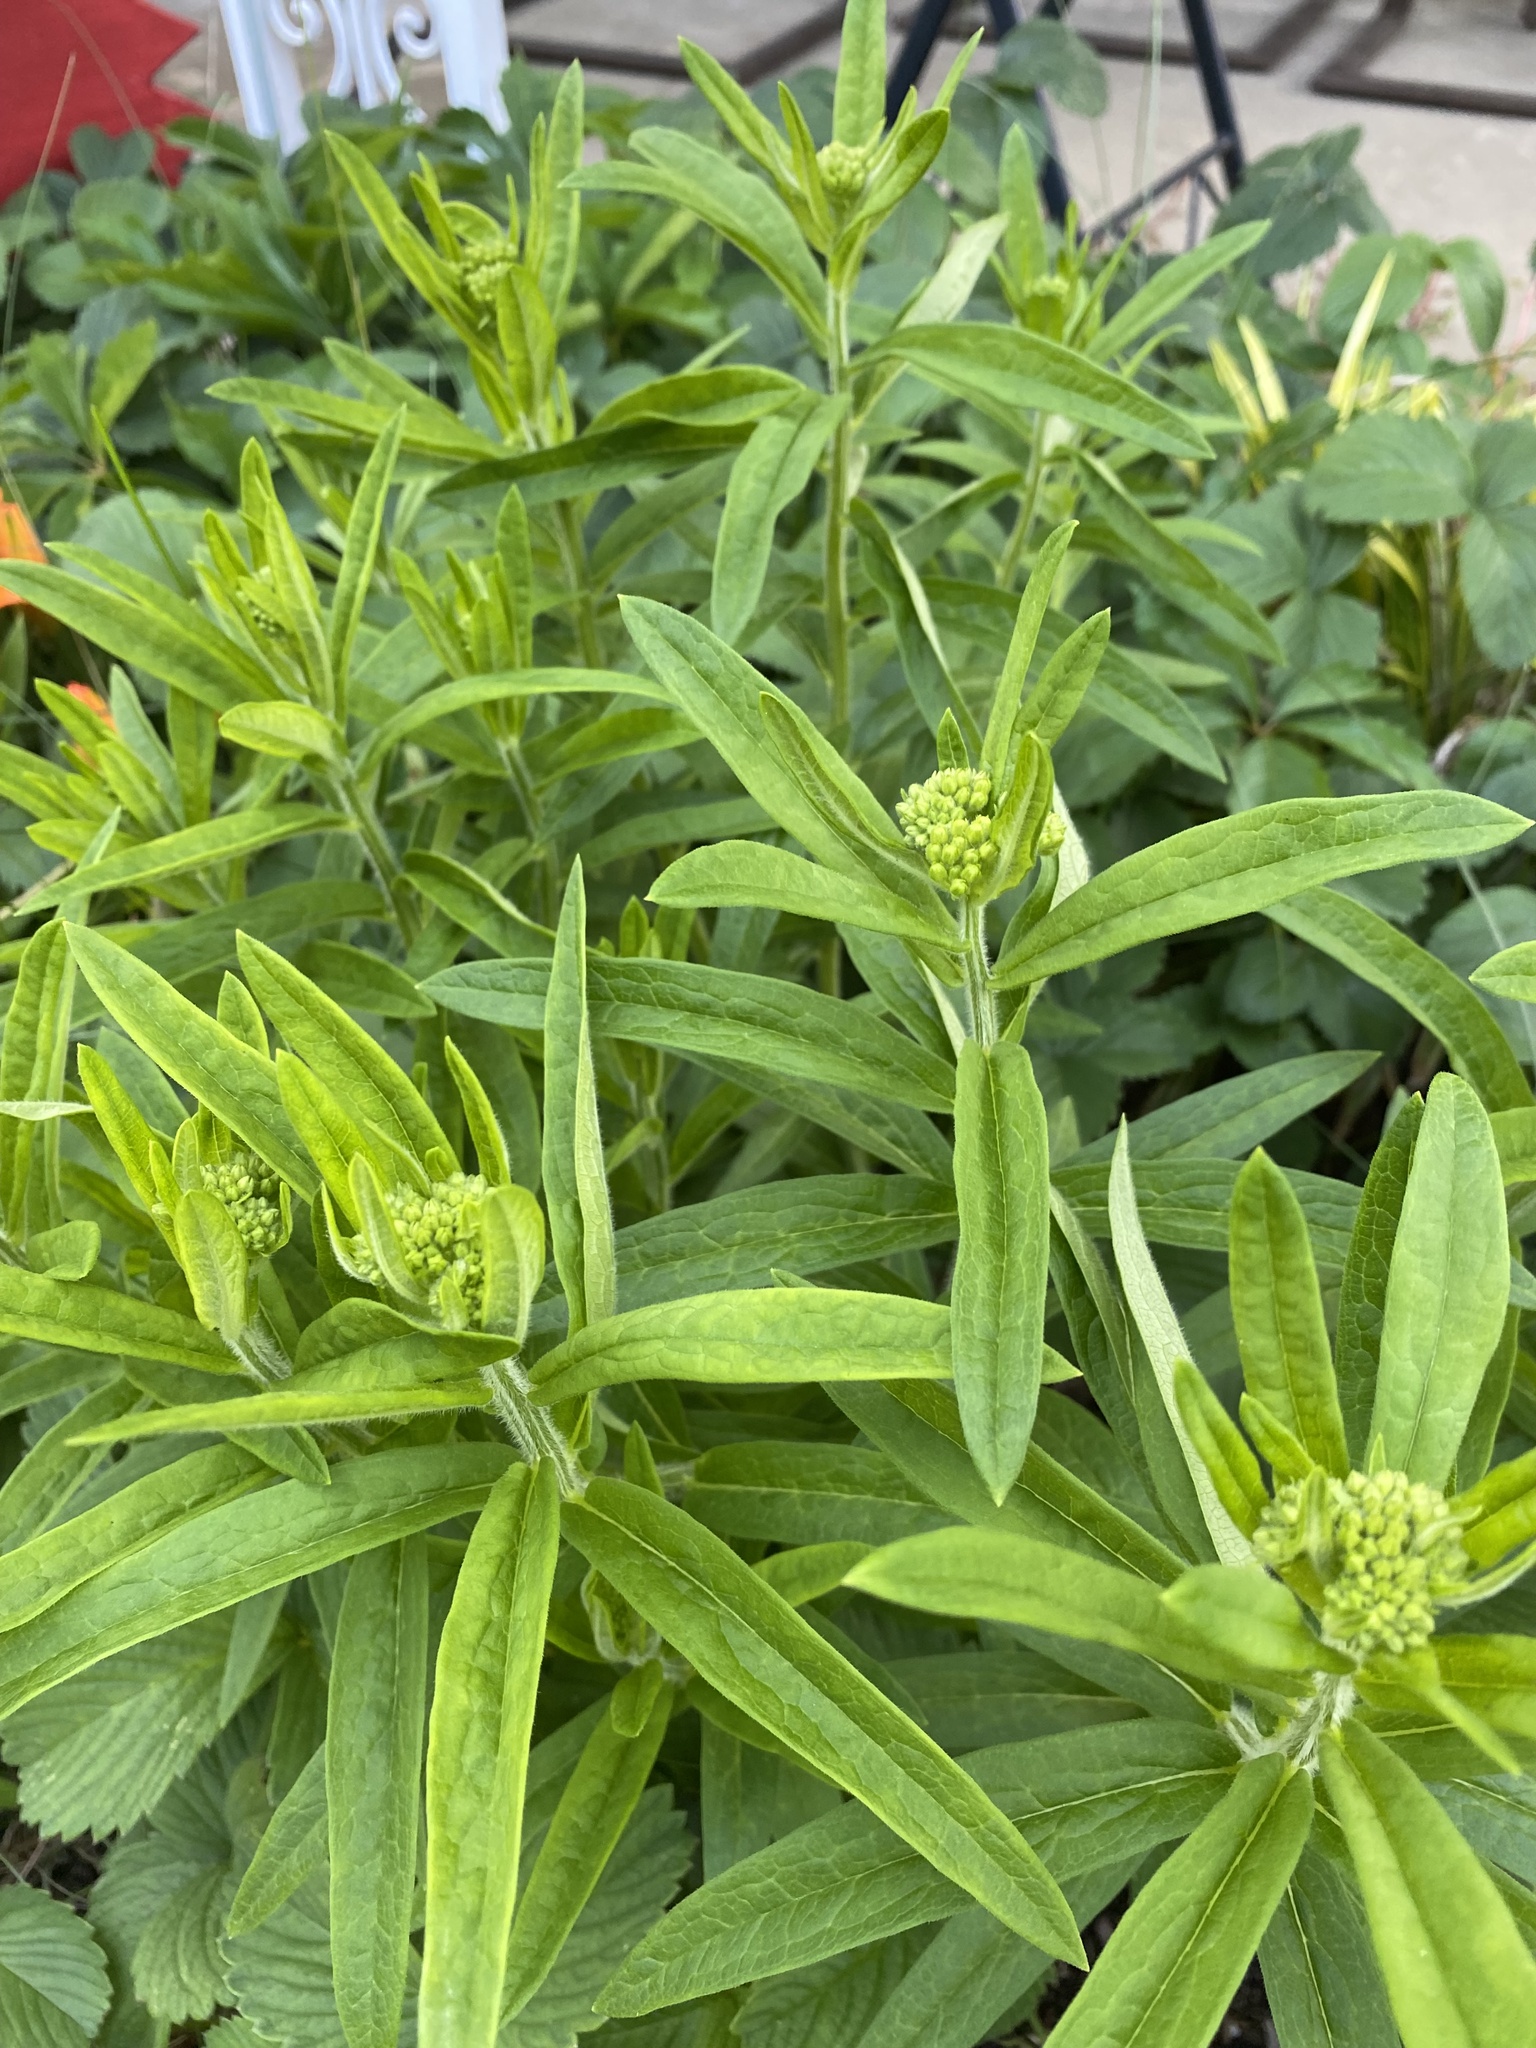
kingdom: Plantae
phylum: Tracheophyta
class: Magnoliopsida
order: Gentianales
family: Apocynaceae
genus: Asclepias
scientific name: Asclepias tuberosa
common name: Butterfly milkweed
